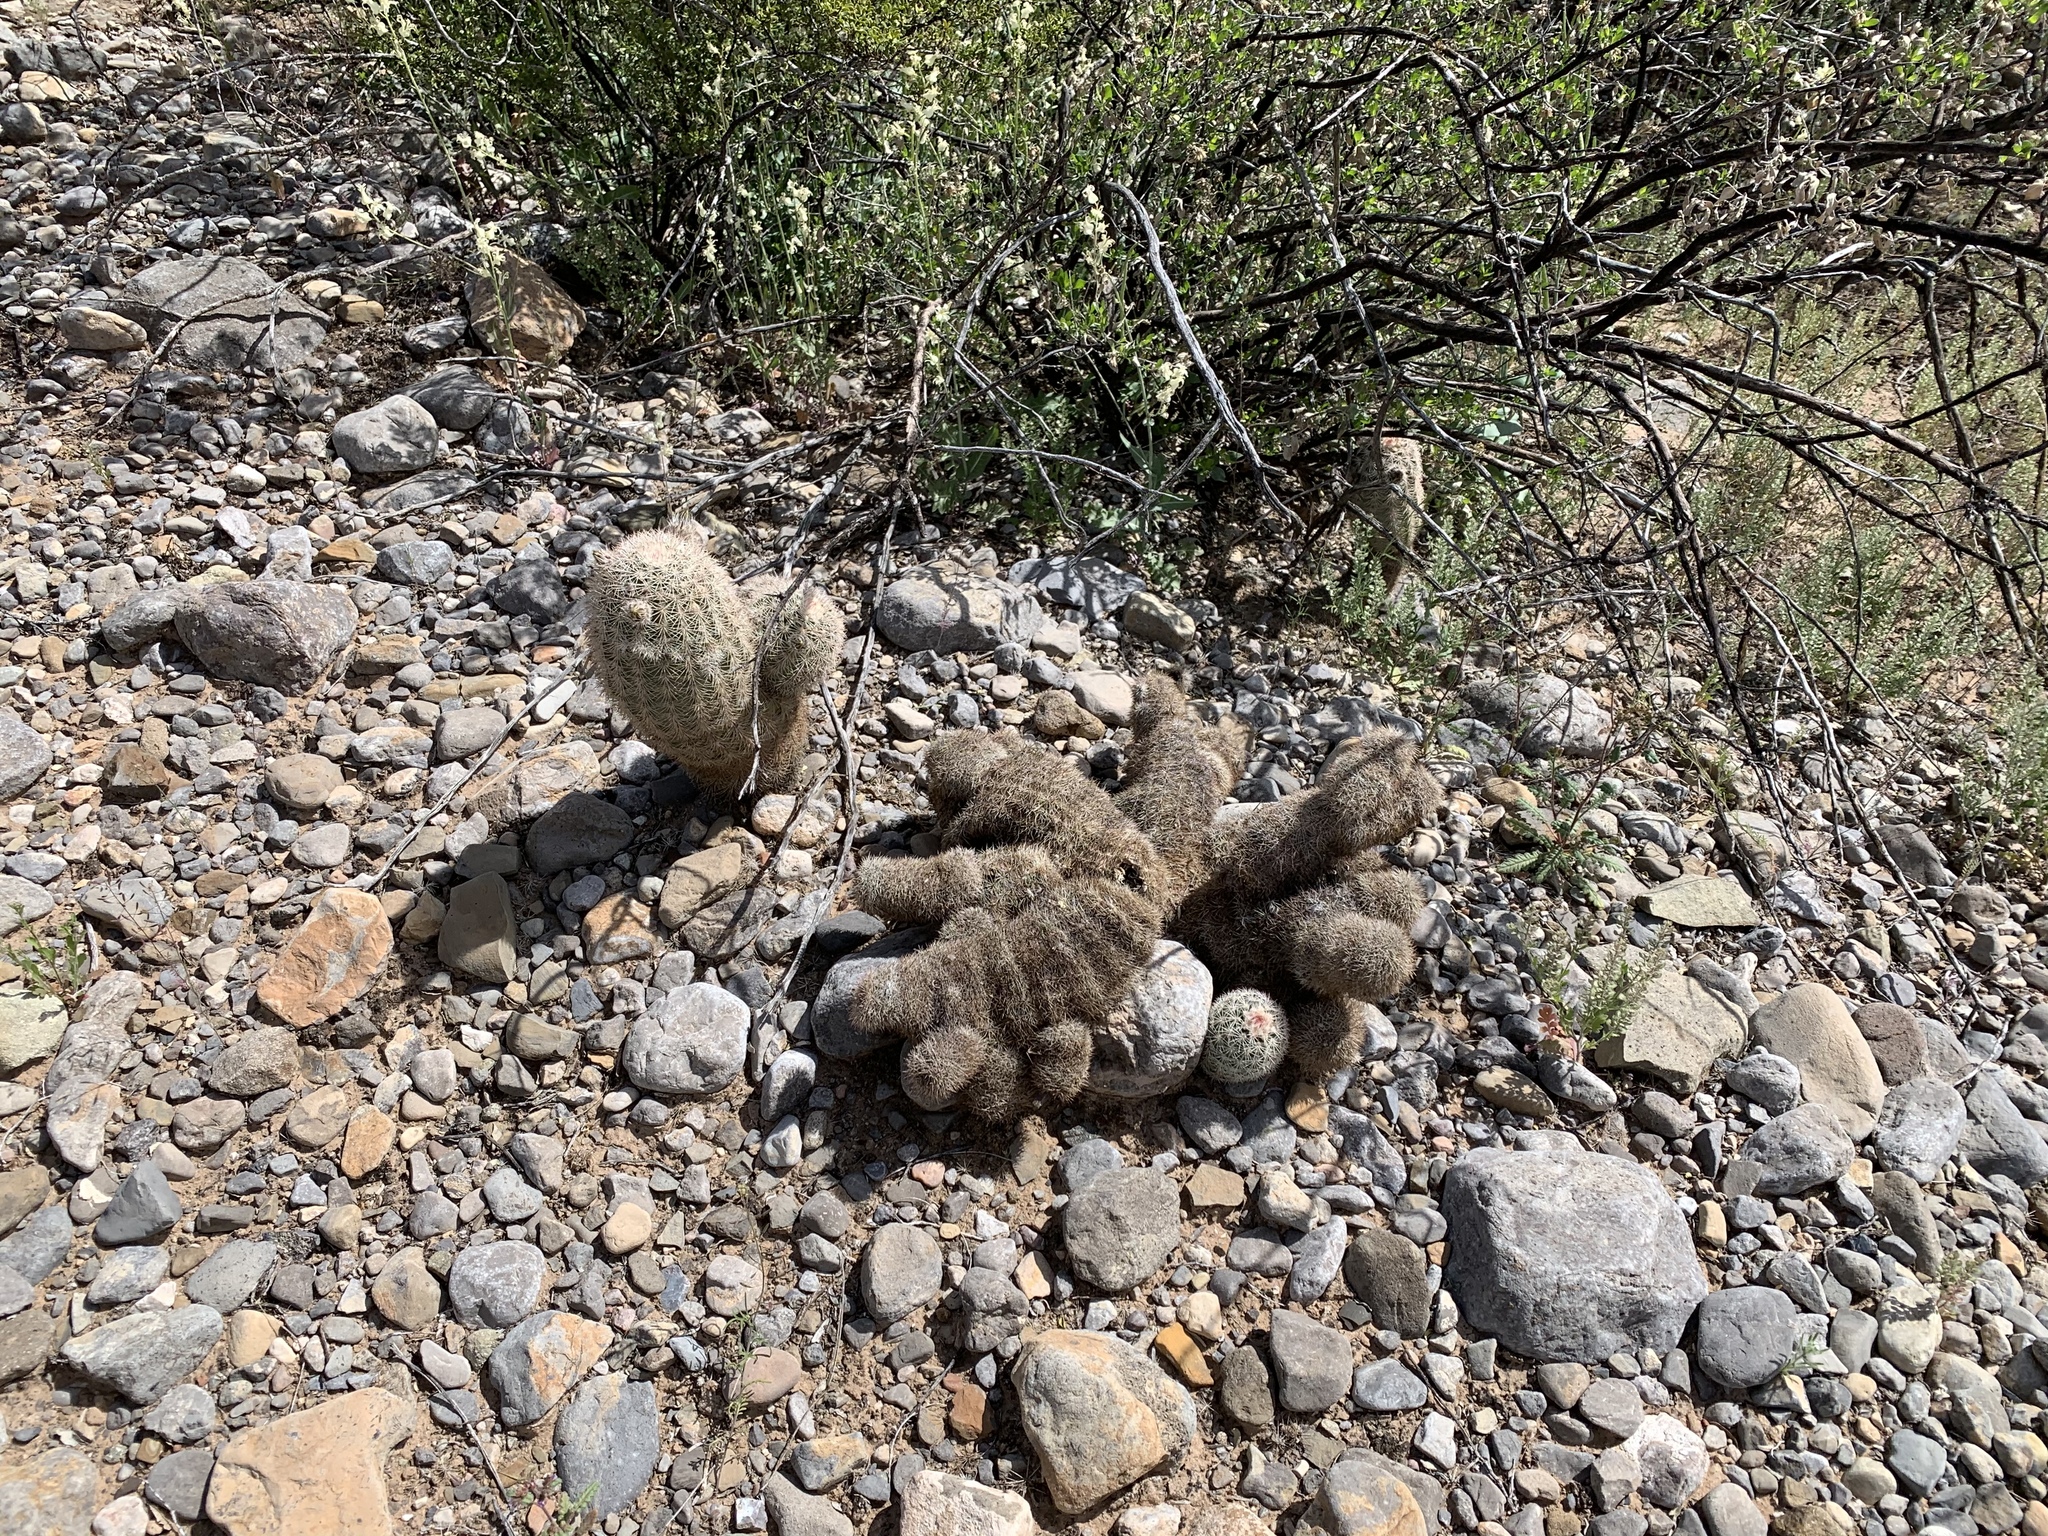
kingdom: Plantae
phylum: Tracheophyta
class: Magnoliopsida
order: Caryophyllales
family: Cactaceae
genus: Echinocereus
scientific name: Echinocereus dasyacanthus
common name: Spiny hedgehog cactus
